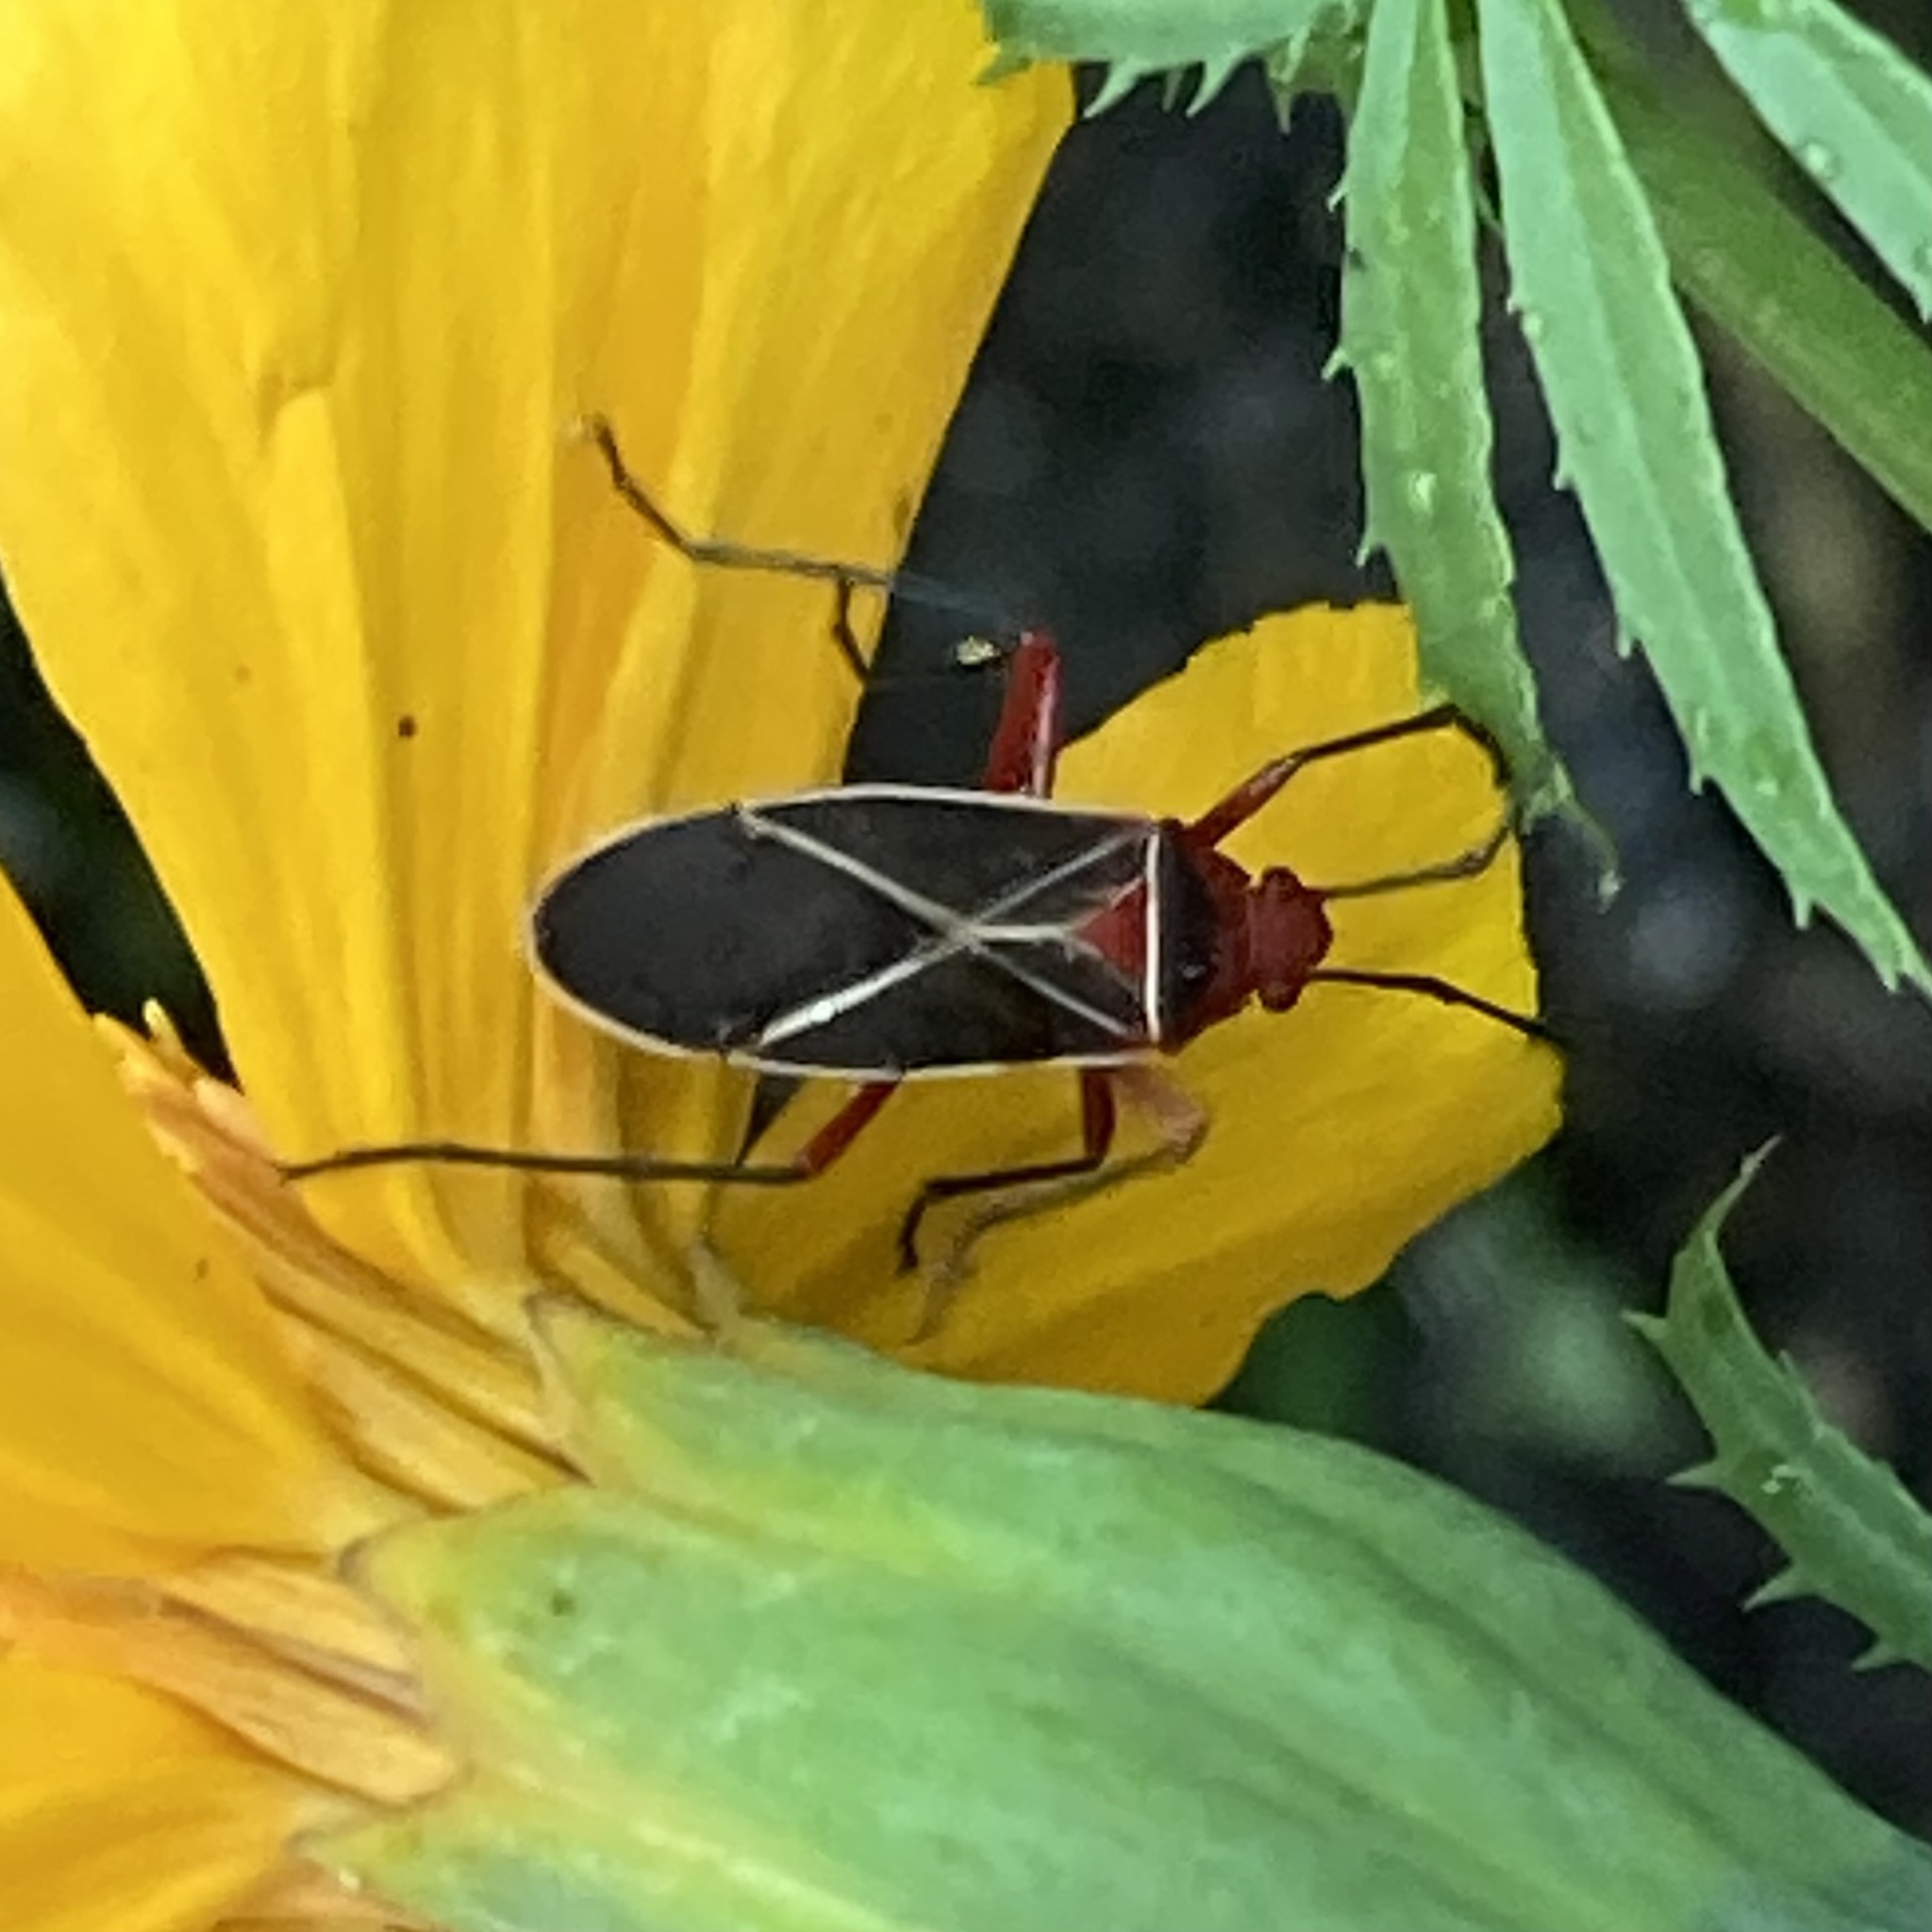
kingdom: Animalia
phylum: Arthropoda
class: Insecta
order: Hemiptera
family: Pyrrhocoridae
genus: Dysdercus
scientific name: Dysdercus suturellus
